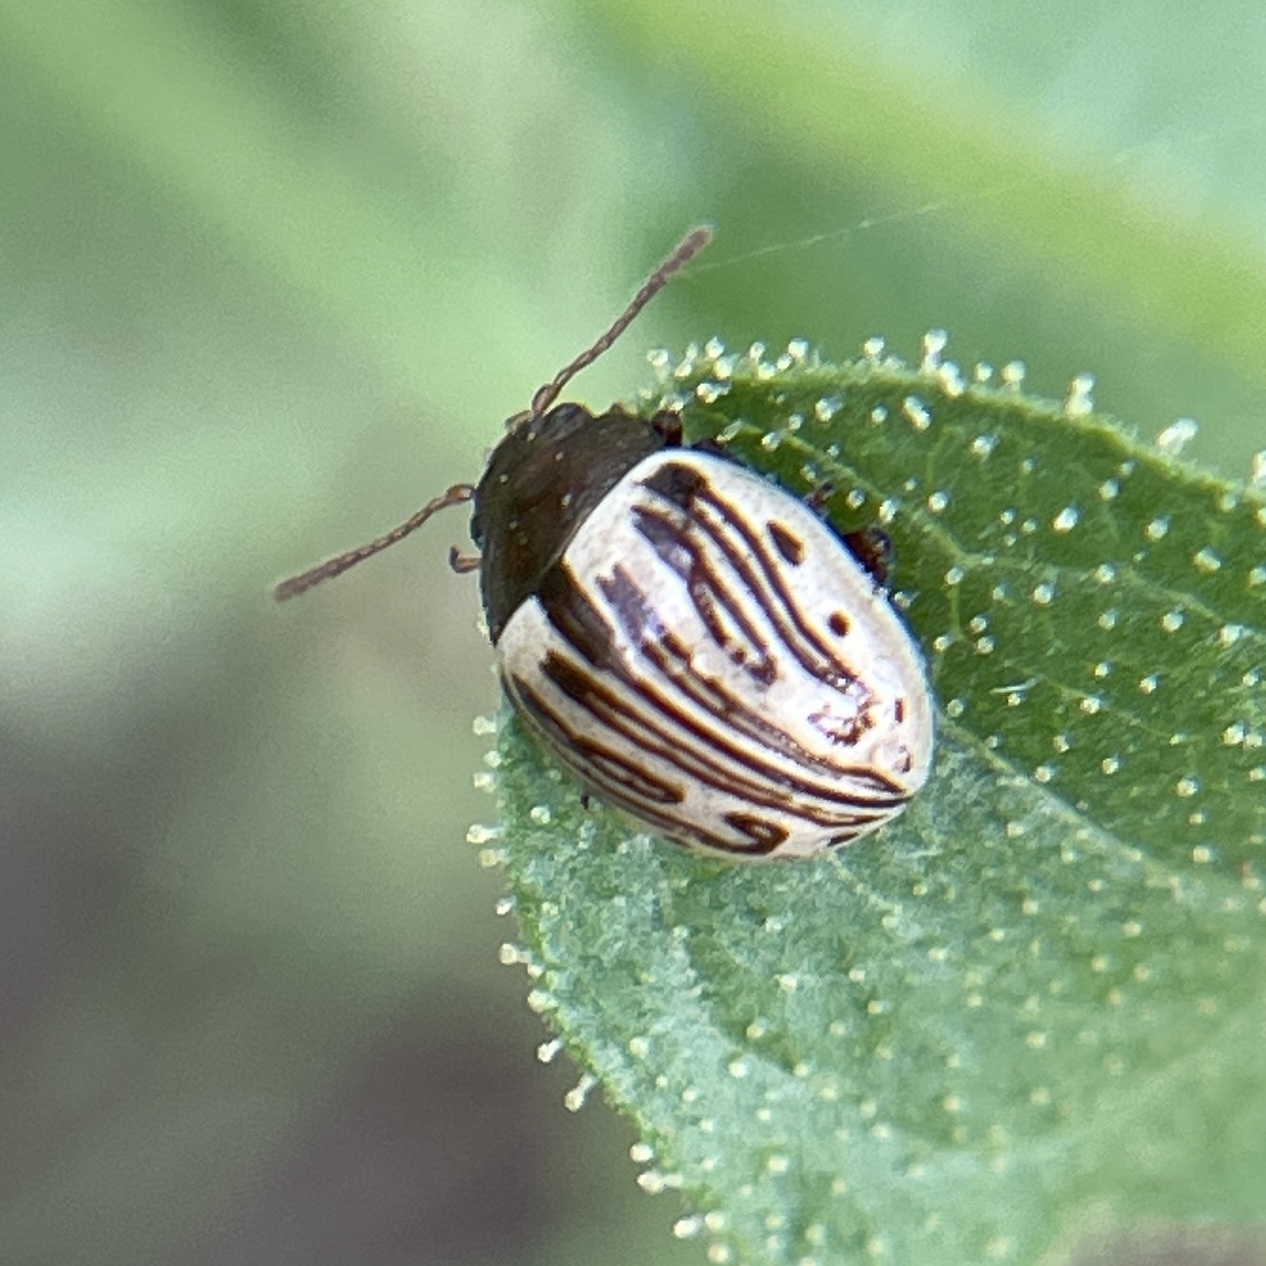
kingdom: Animalia
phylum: Arthropoda
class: Insecta
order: Coleoptera
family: Chrysomelidae
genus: Calligrapha
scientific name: Calligrapha
